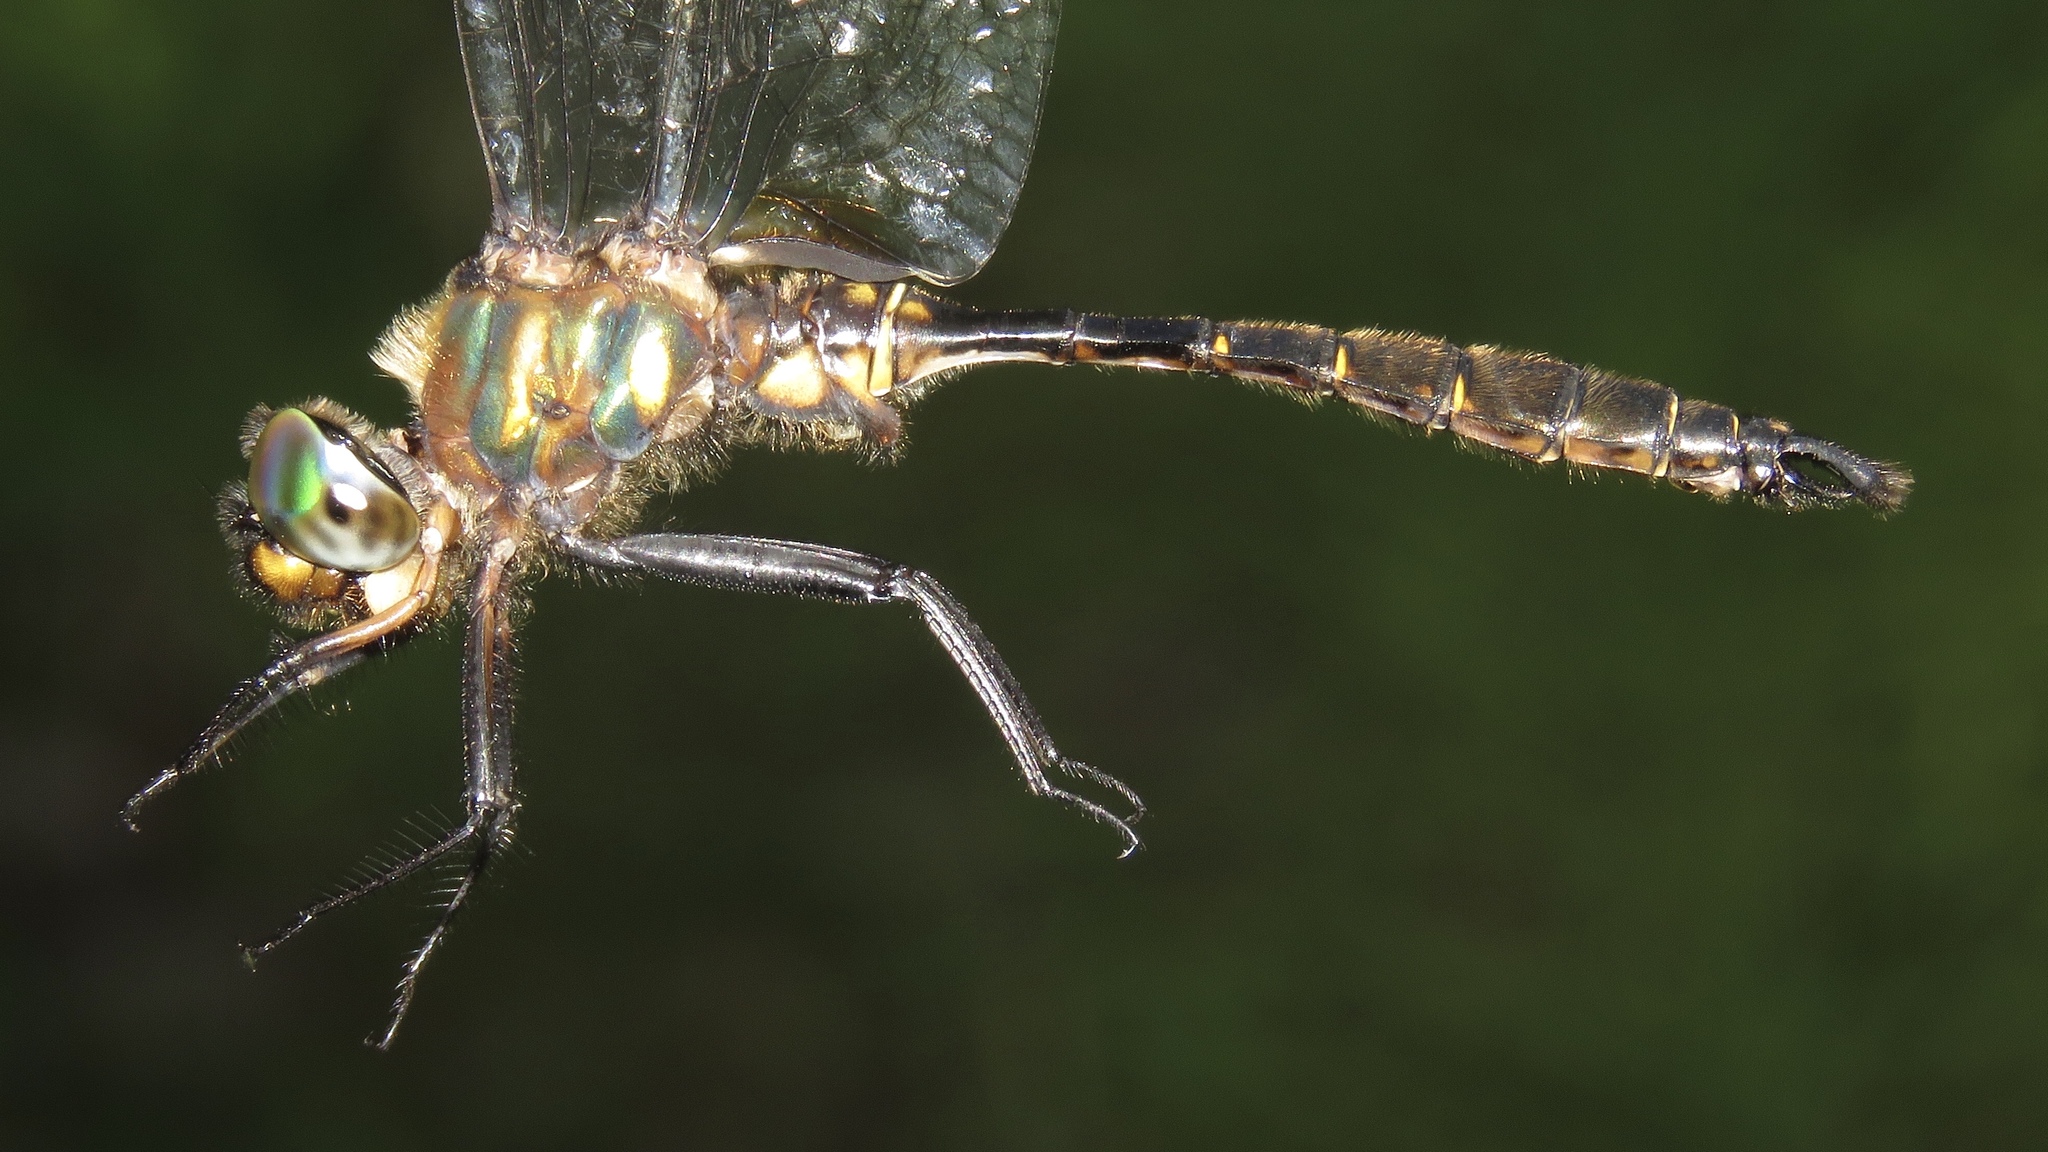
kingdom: Animalia
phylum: Arthropoda
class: Insecta
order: Odonata
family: Corduliidae
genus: Somatochlora
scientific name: Somatochlora walshii
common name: Brush-tipped emerald
